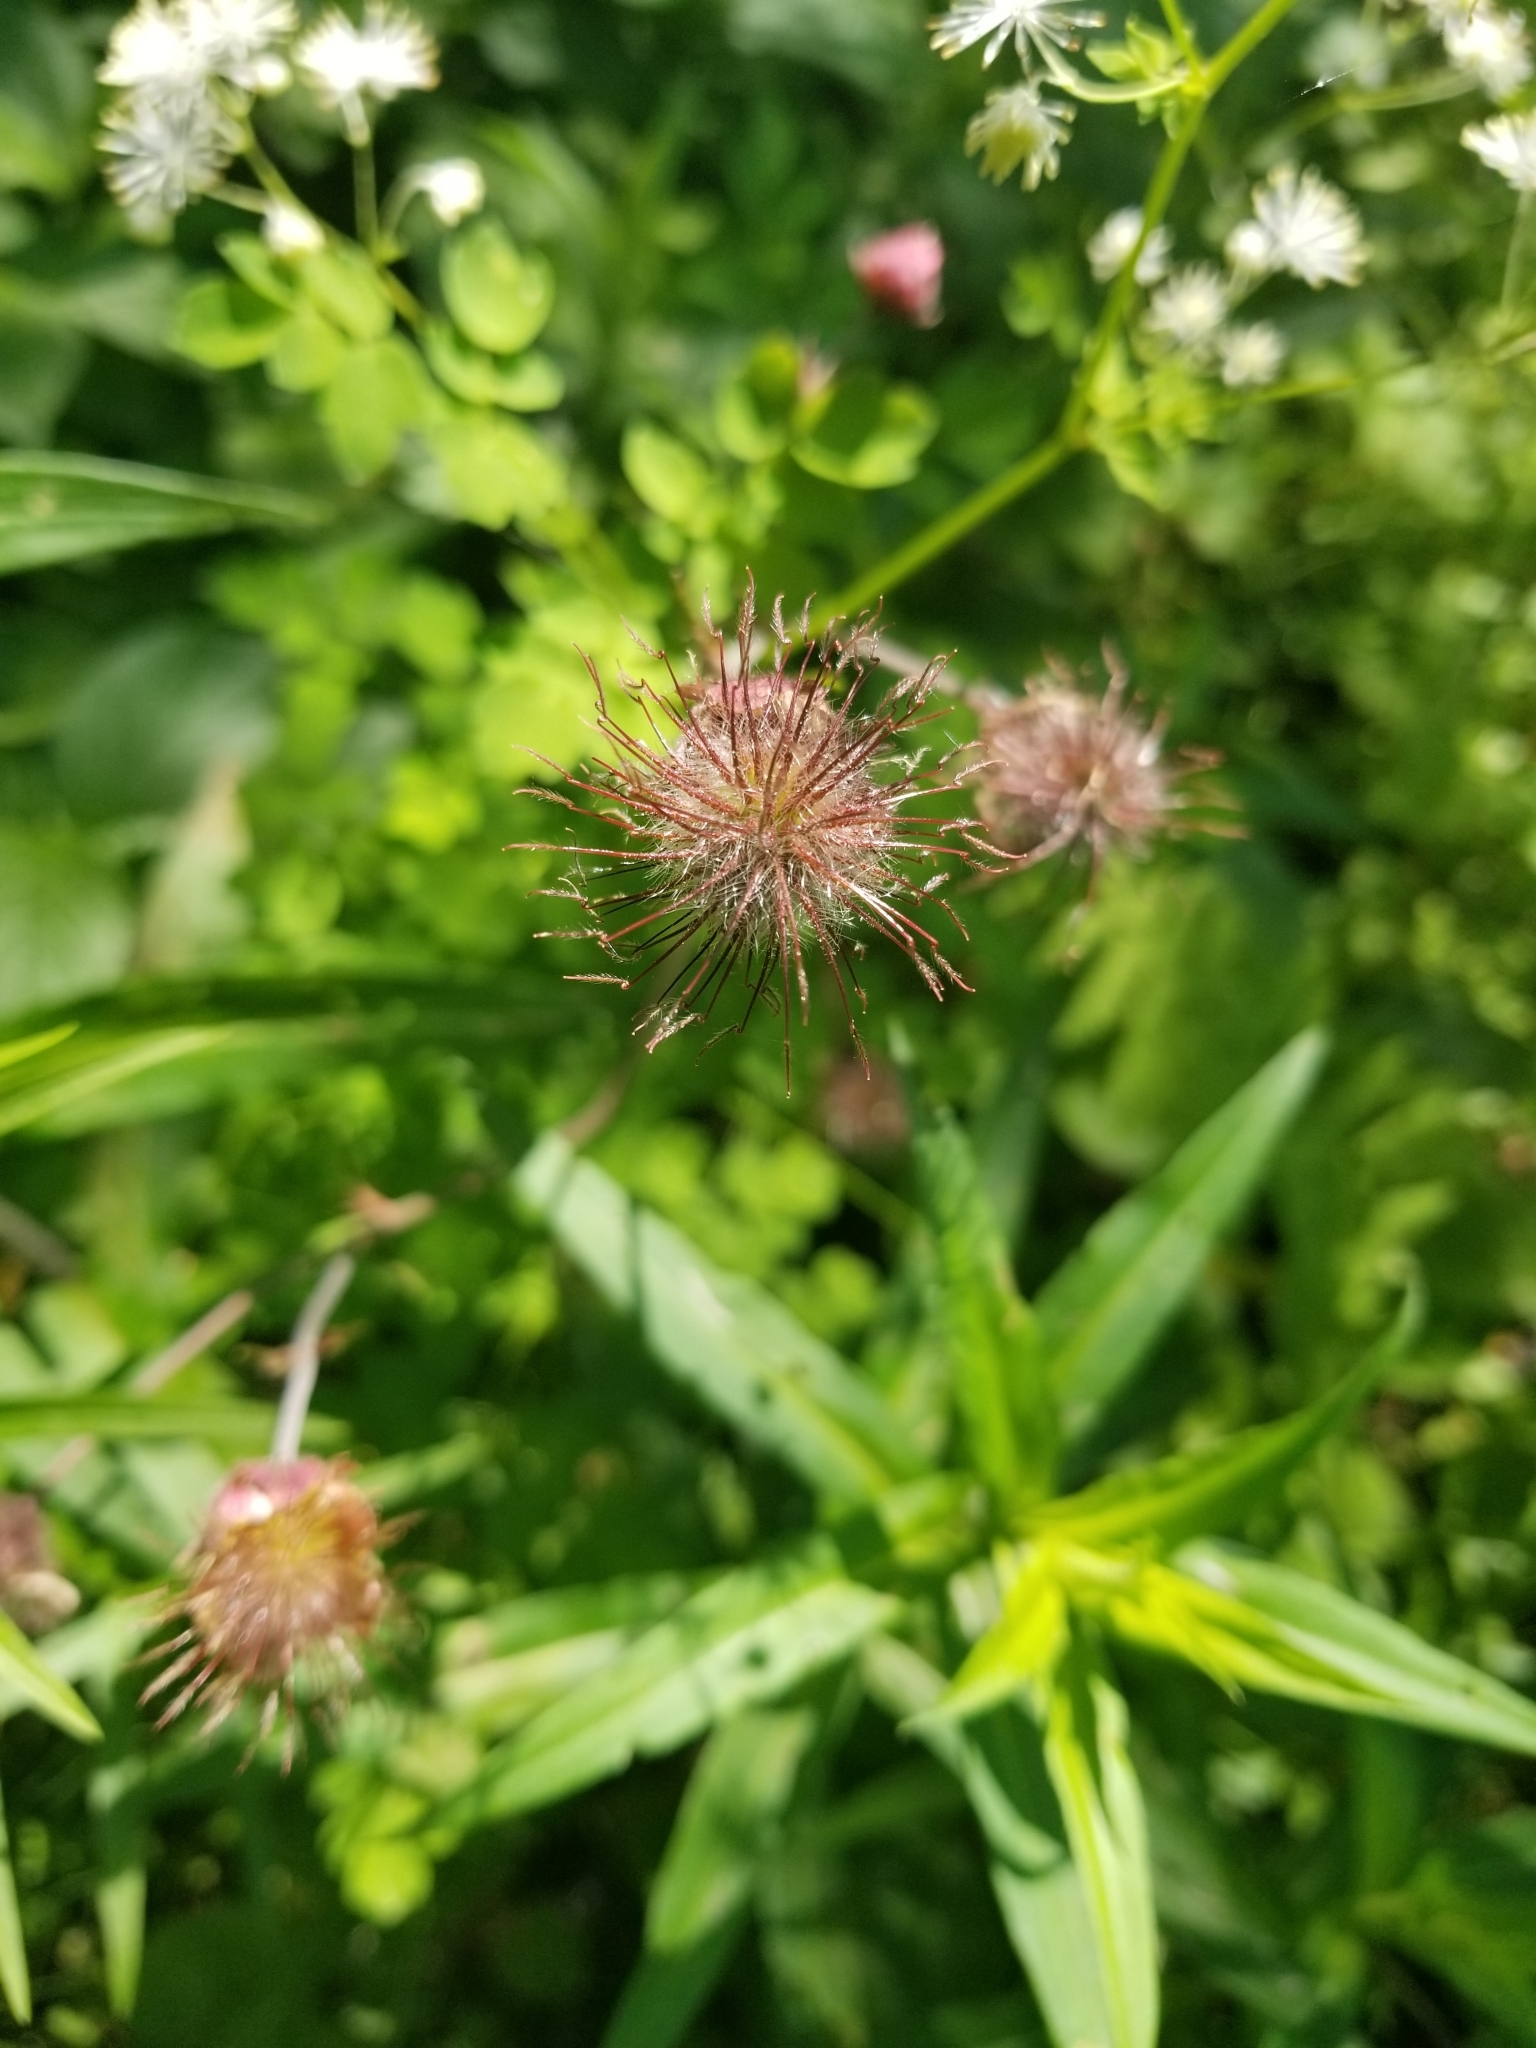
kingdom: Plantae
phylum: Tracheophyta
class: Magnoliopsida
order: Rosales
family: Rosaceae
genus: Geum
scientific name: Geum rivale
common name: Water avens
